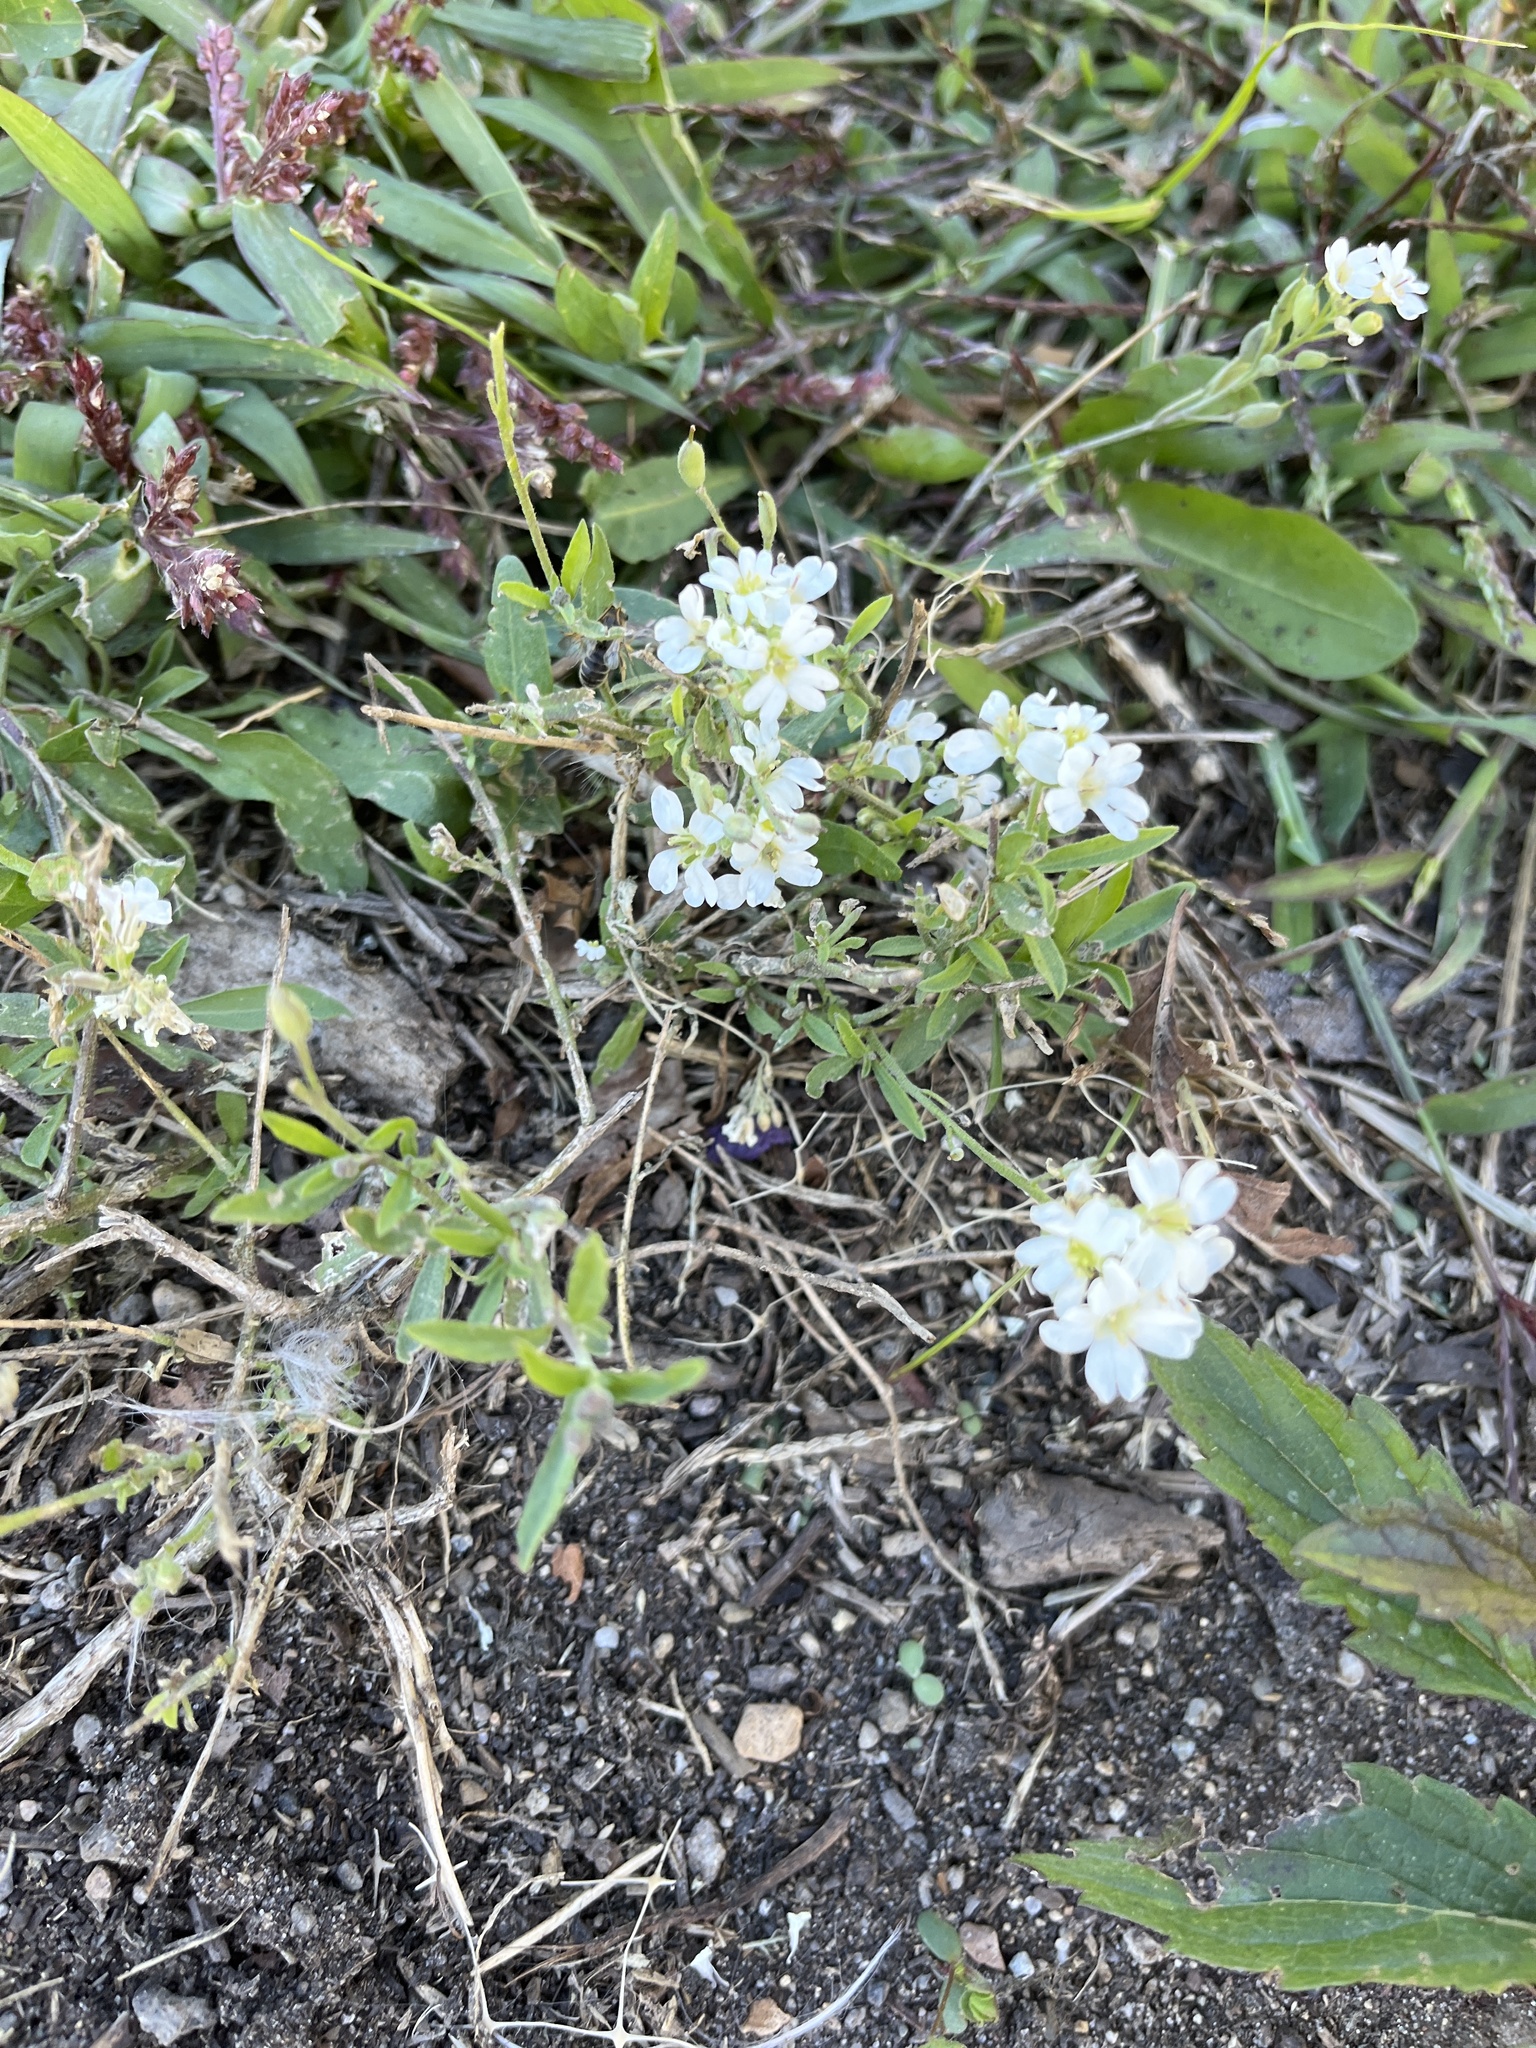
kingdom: Plantae
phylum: Tracheophyta
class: Magnoliopsida
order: Brassicales
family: Brassicaceae
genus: Berteroa
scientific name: Berteroa incana
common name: Hoary alison
